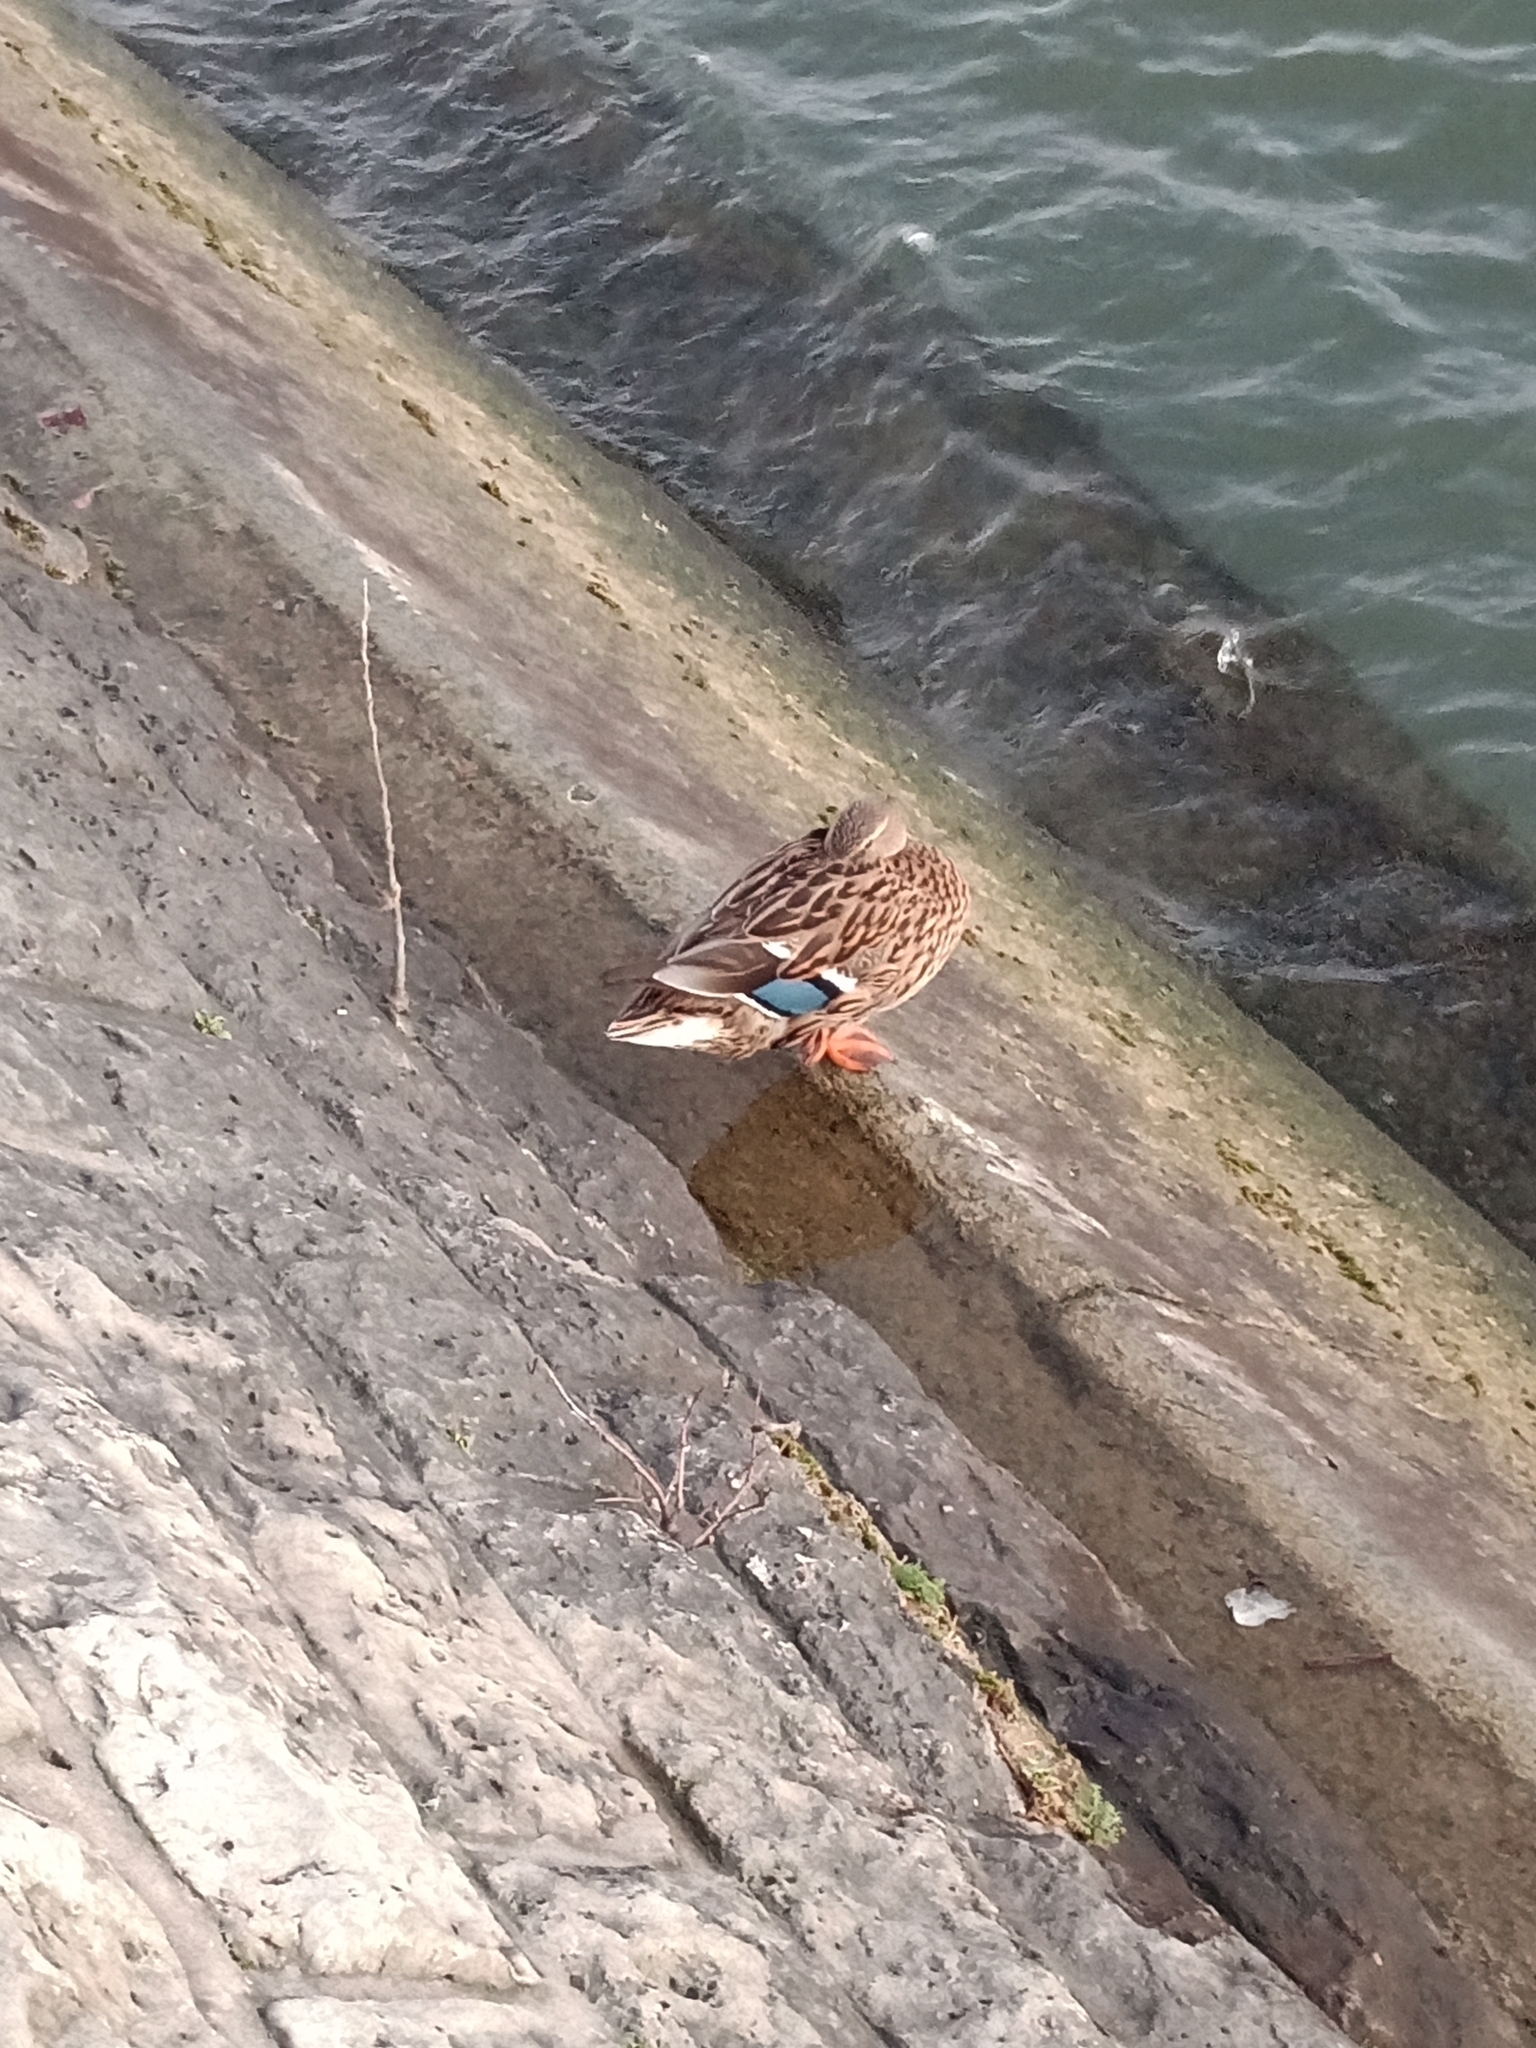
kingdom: Animalia
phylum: Chordata
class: Aves
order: Anseriformes
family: Anatidae
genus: Anas
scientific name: Anas platyrhynchos
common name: Mallard
